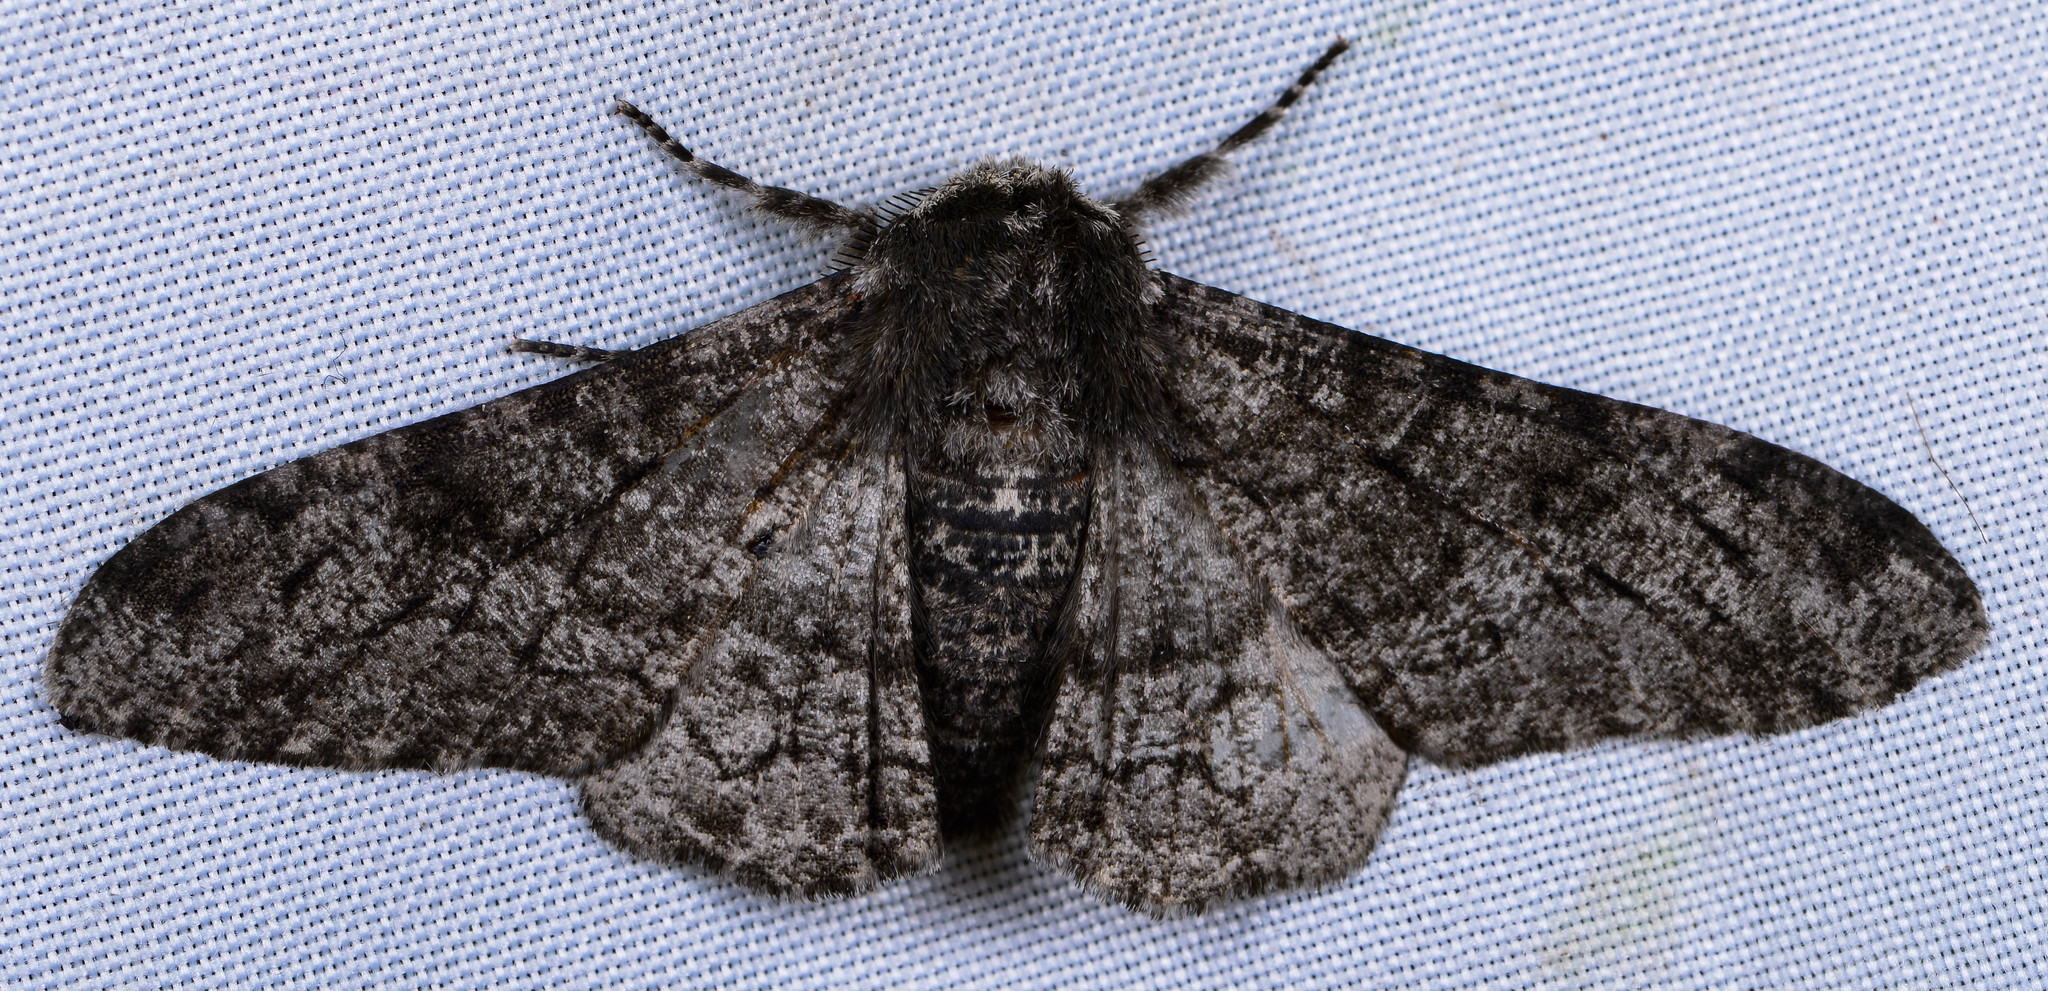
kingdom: Animalia
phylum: Arthropoda
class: Insecta
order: Lepidoptera
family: Geometridae
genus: Biston
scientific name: Biston betularia
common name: Peppered moth
